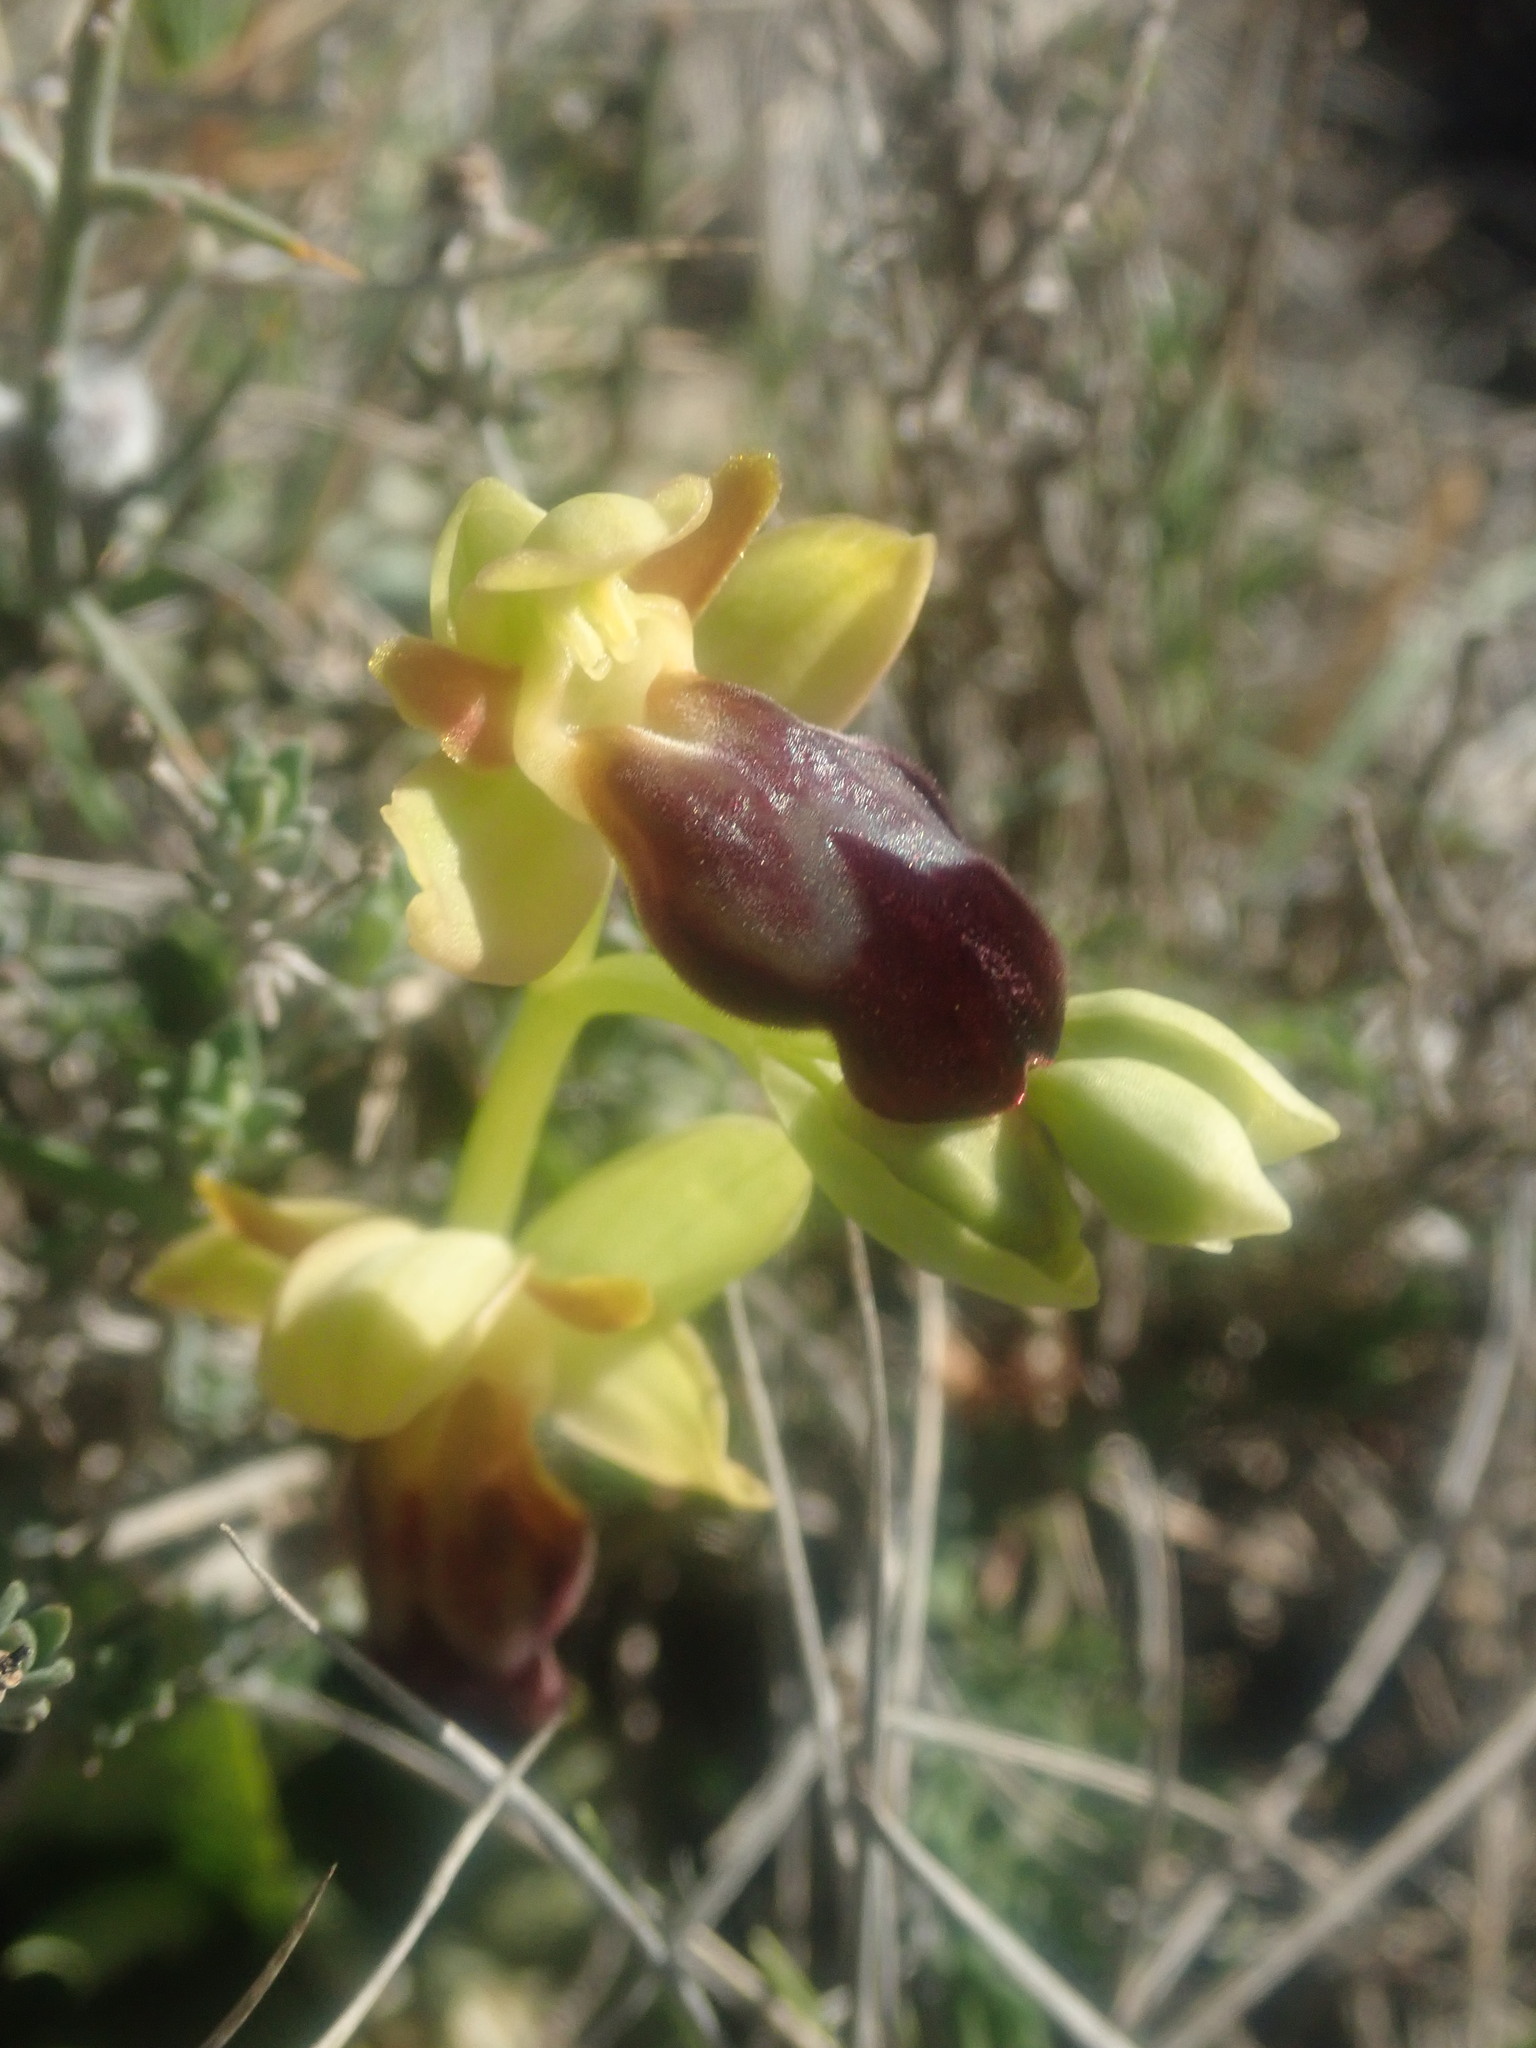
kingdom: Plantae
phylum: Tracheophyta
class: Liliopsida
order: Asparagales
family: Orchidaceae
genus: Ophrys
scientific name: Ophrys fusca
